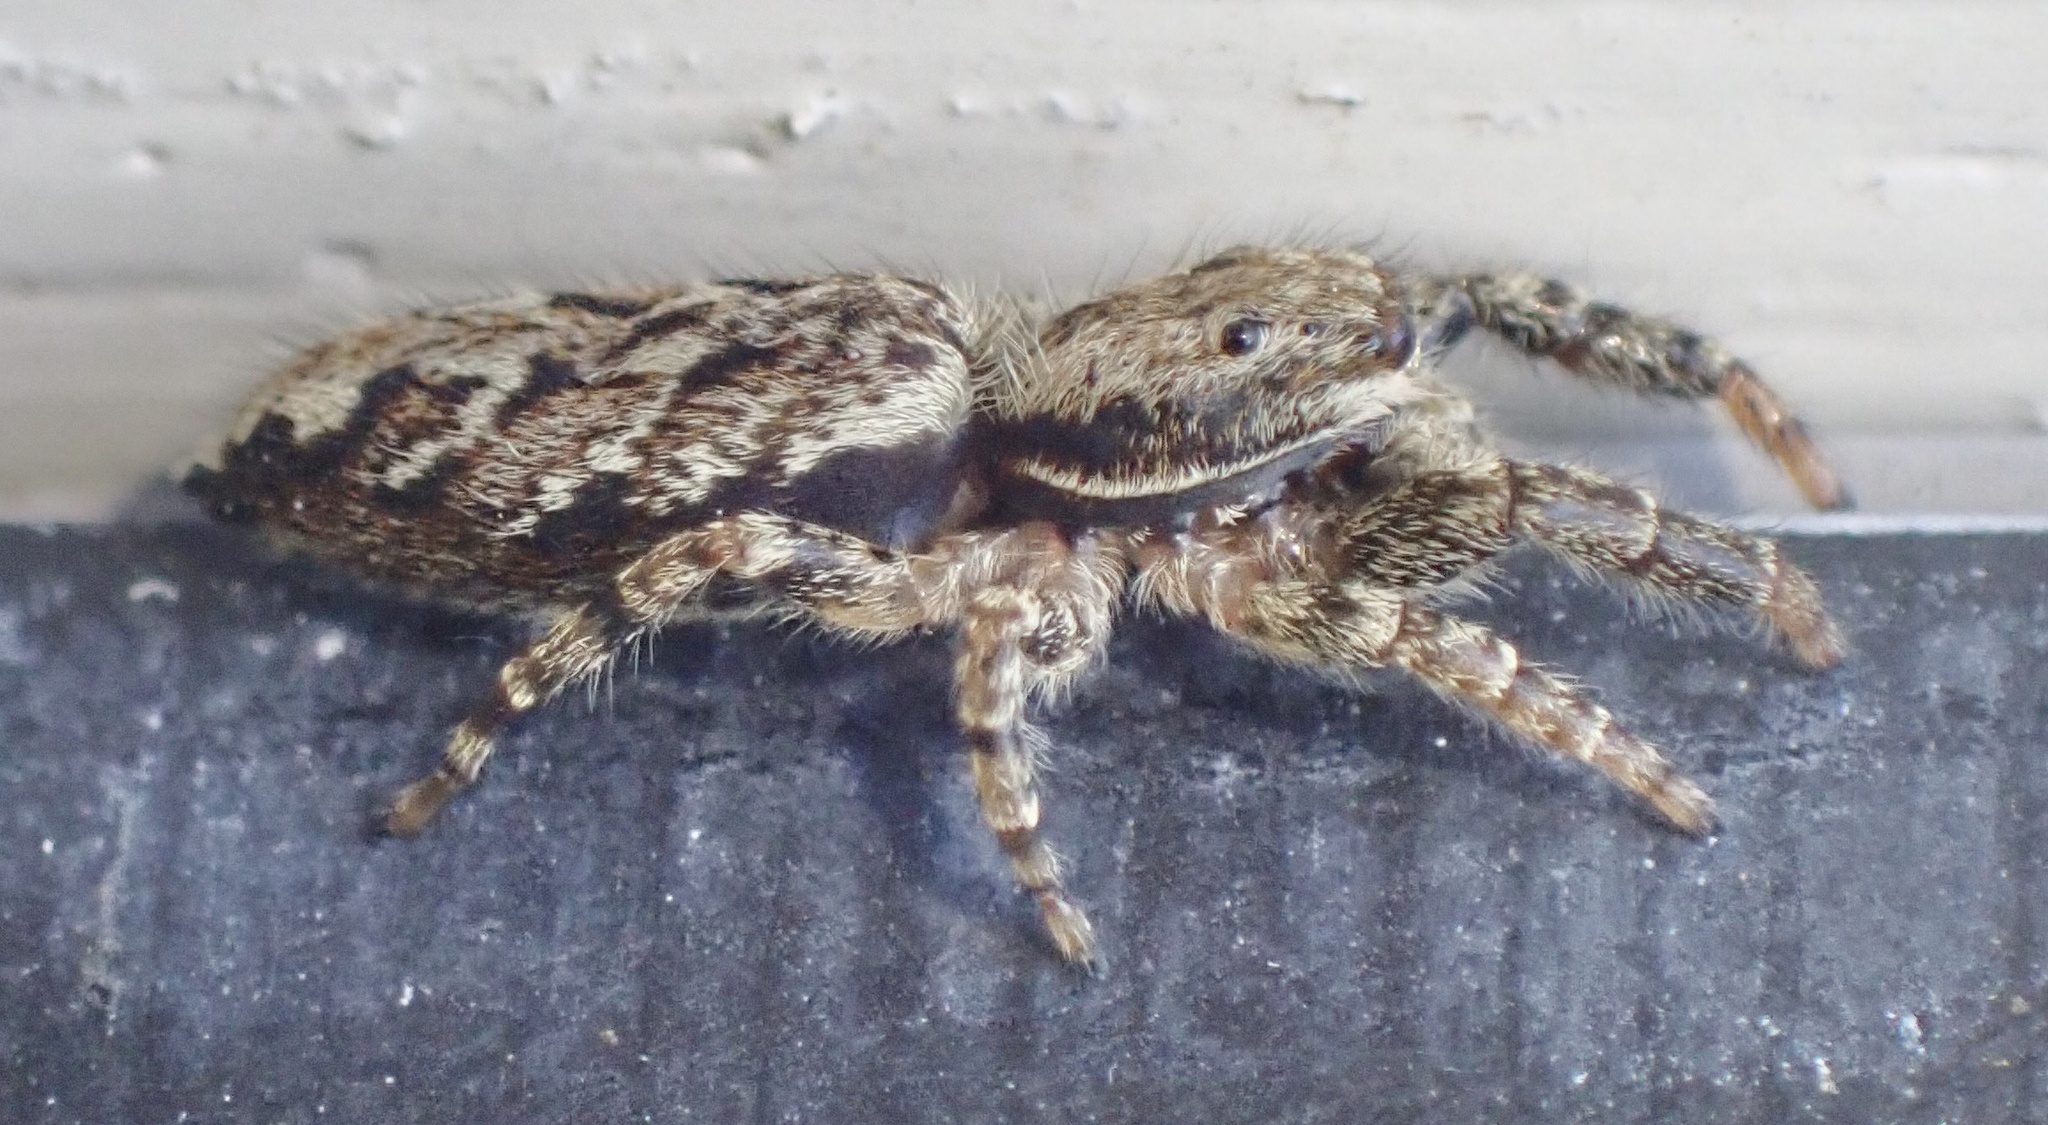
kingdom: Animalia
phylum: Arthropoda
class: Arachnida
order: Araneae
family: Salticidae
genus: Marpissa
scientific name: Marpissa muscosa
